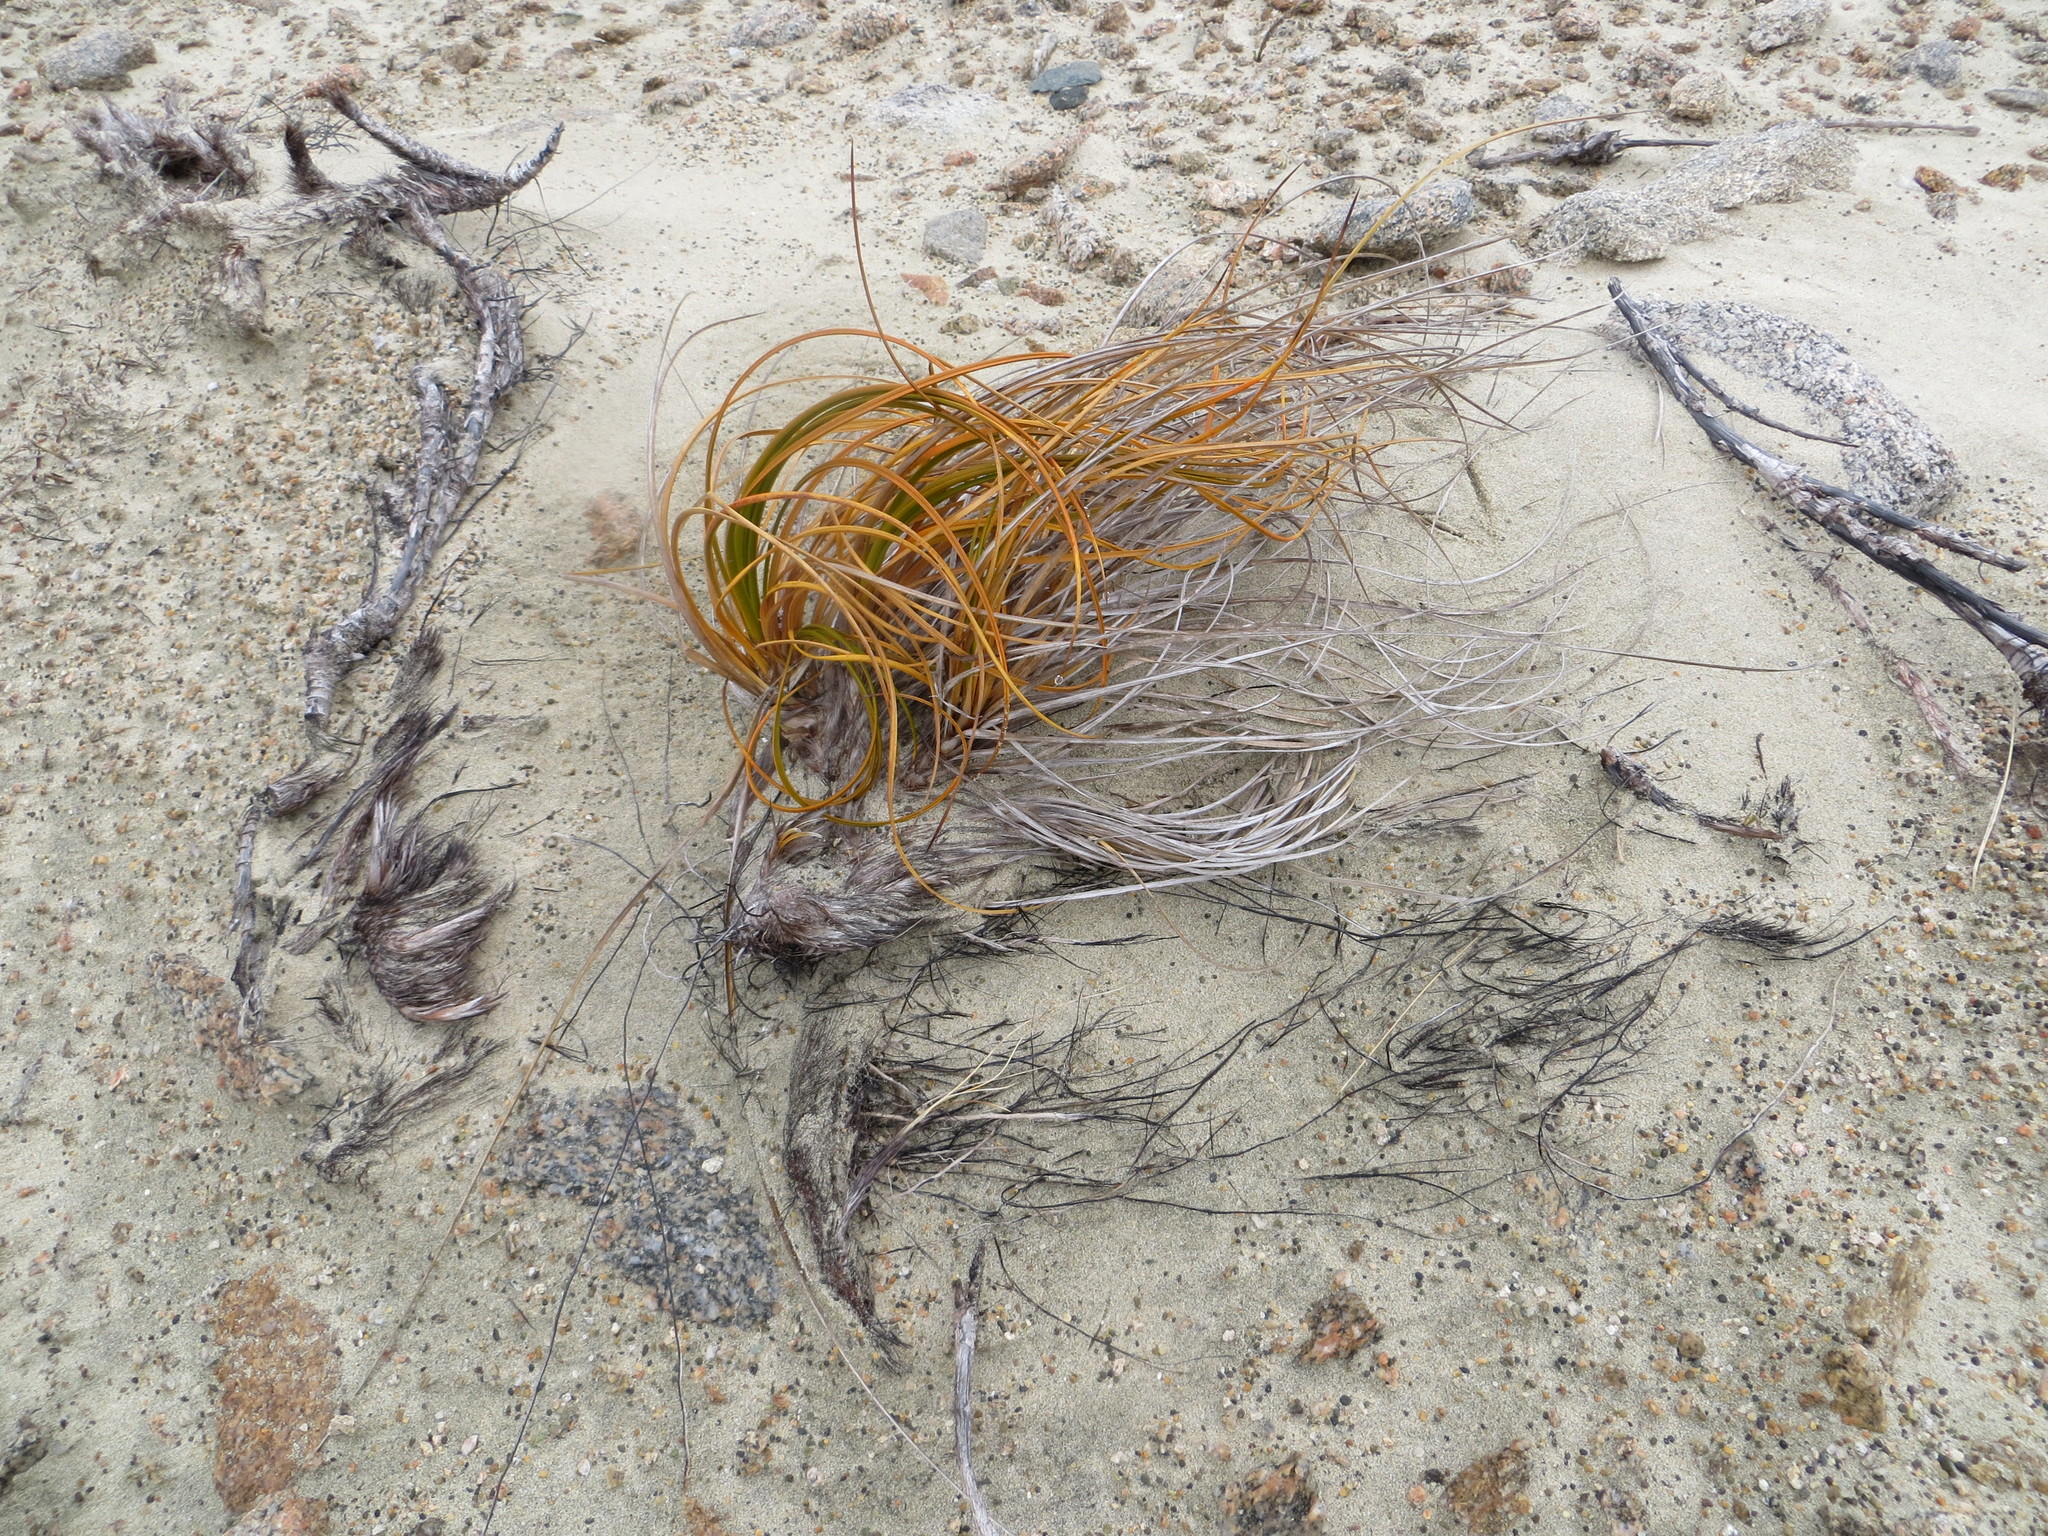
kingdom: Plantae
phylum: Tracheophyta
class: Liliopsida
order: Poales
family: Cyperaceae
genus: Ficinia
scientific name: Ficinia spiralis
